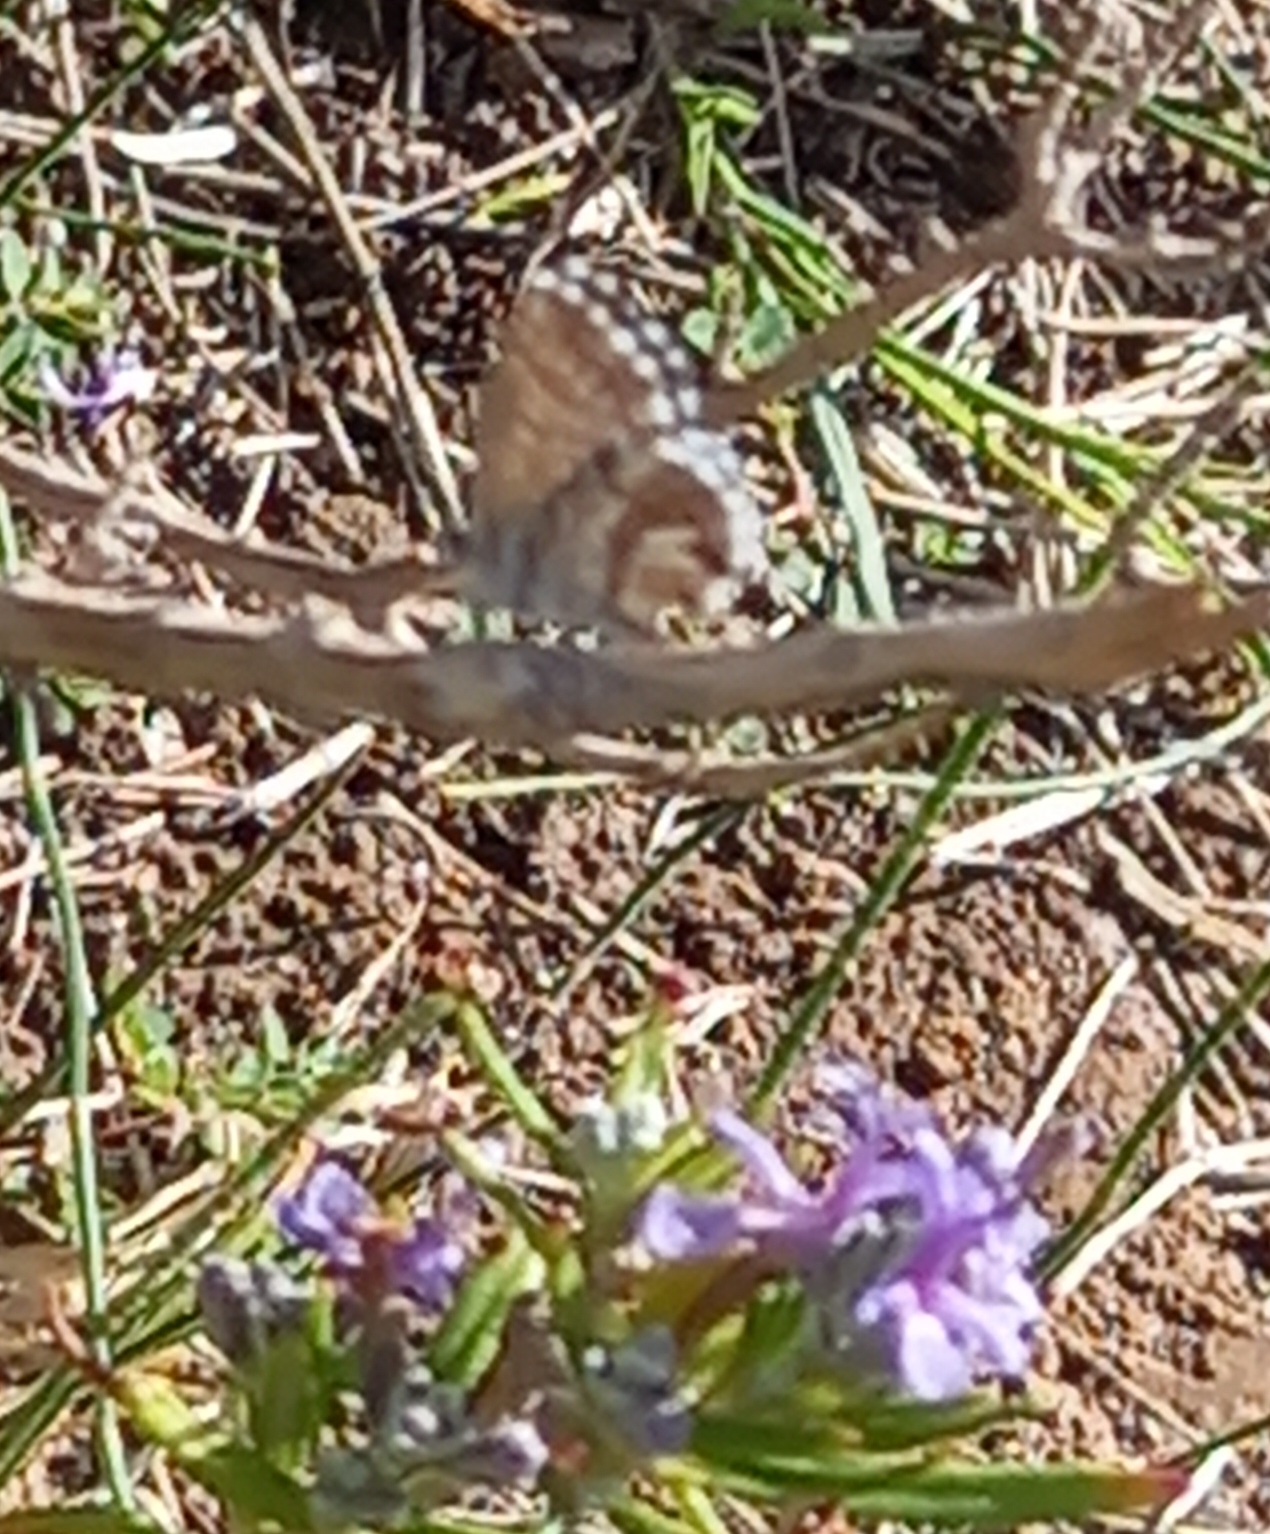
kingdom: Animalia
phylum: Arthropoda
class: Insecta
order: Lepidoptera
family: Lycaenidae
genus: Cacyreus
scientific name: Cacyreus marshalli
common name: Geranium bronze
